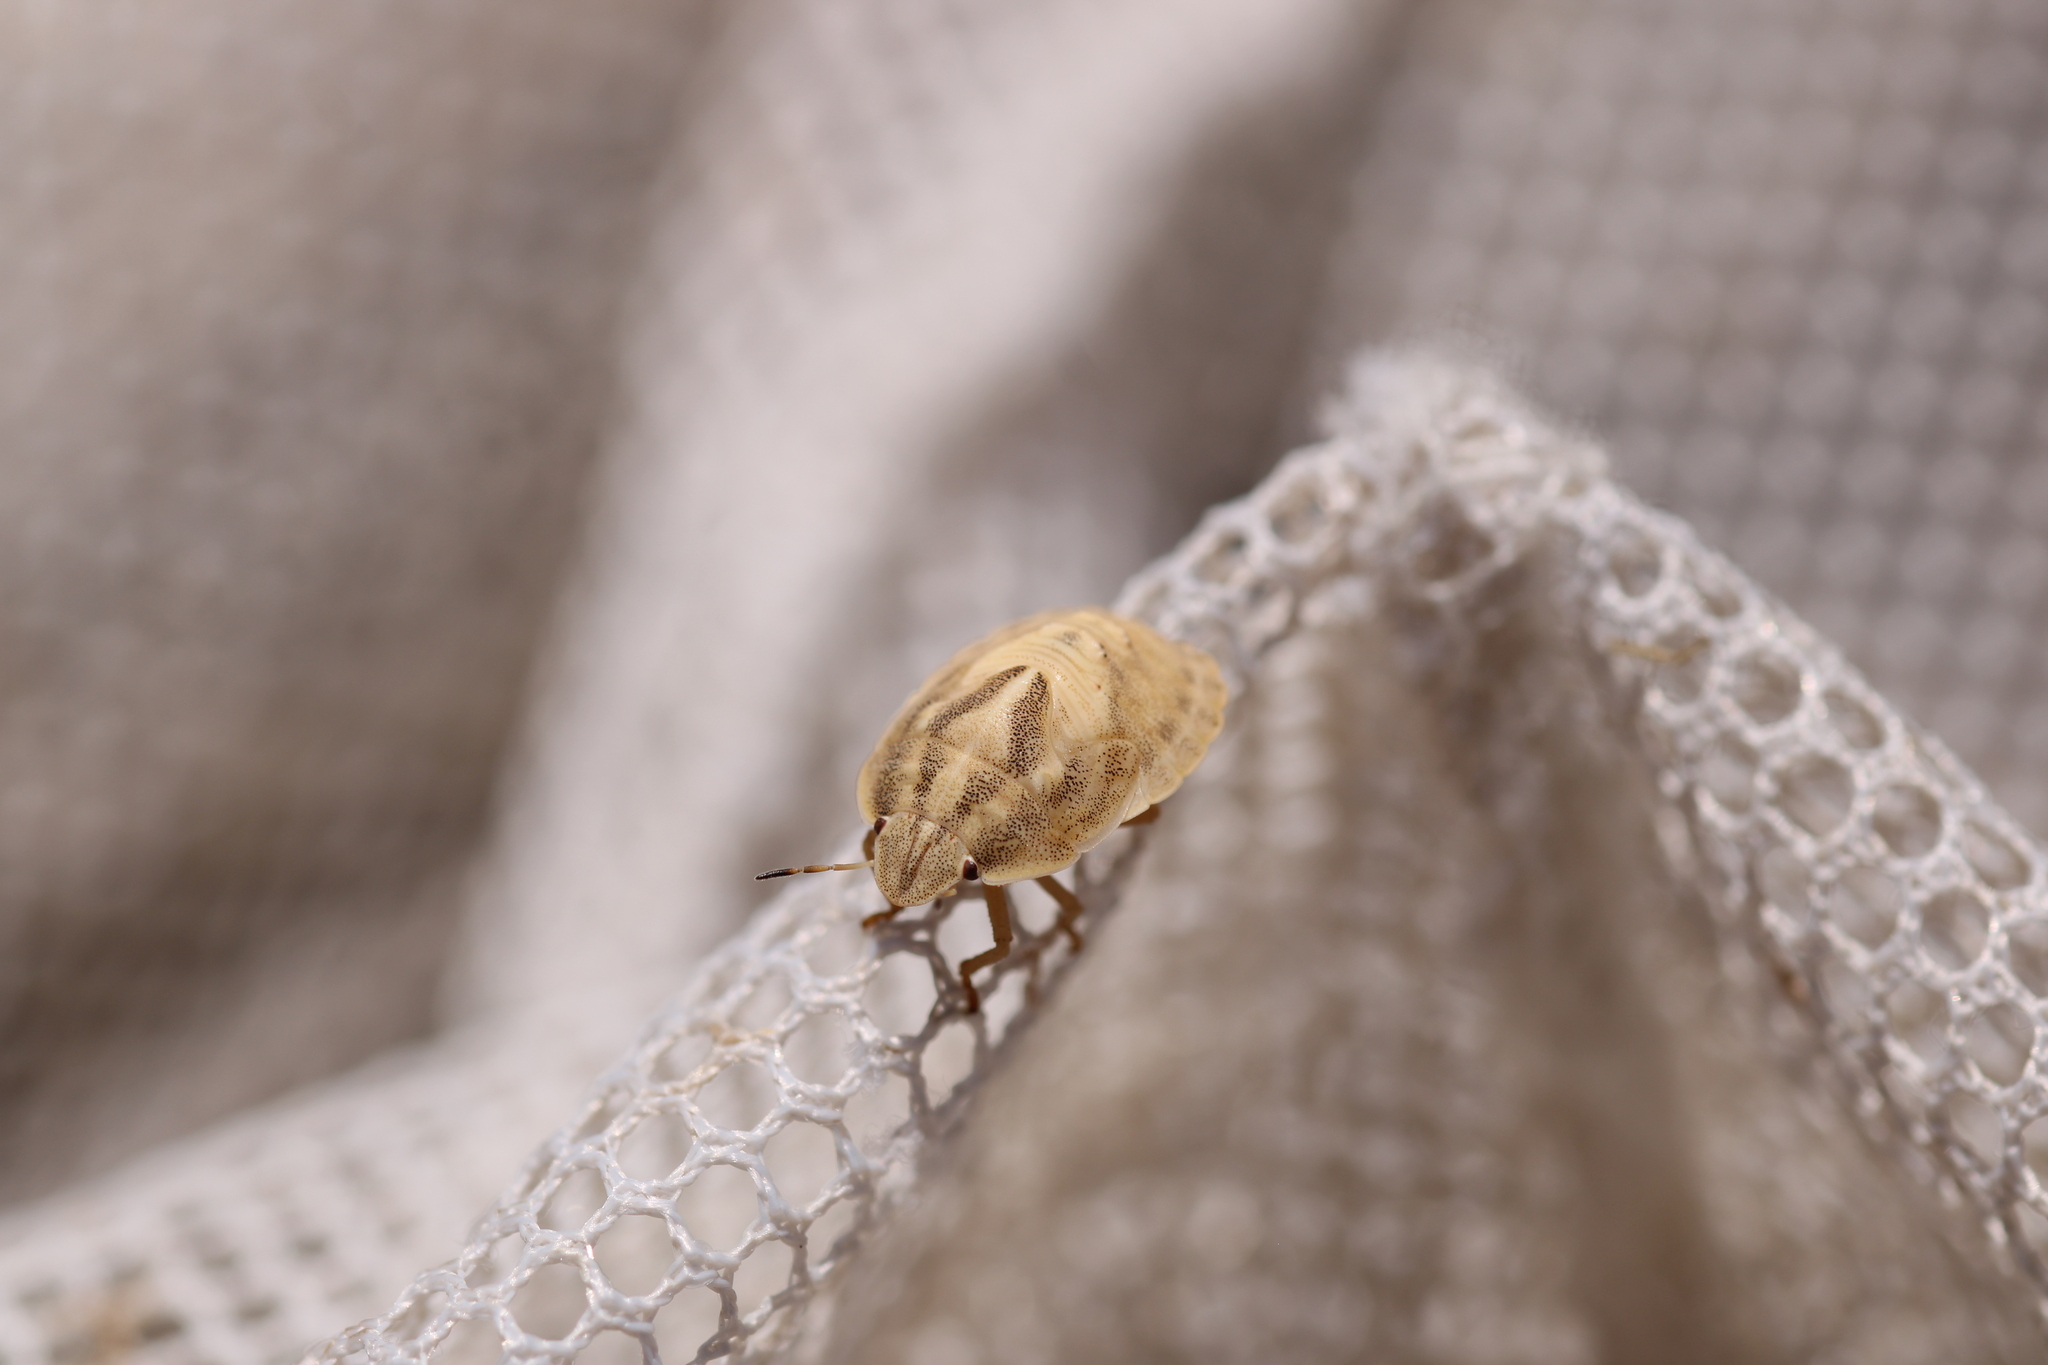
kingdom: Animalia
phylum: Arthropoda
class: Insecta
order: Hemiptera
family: Scutelleridae
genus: Eurygaster
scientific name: Eurygaster austriaca
